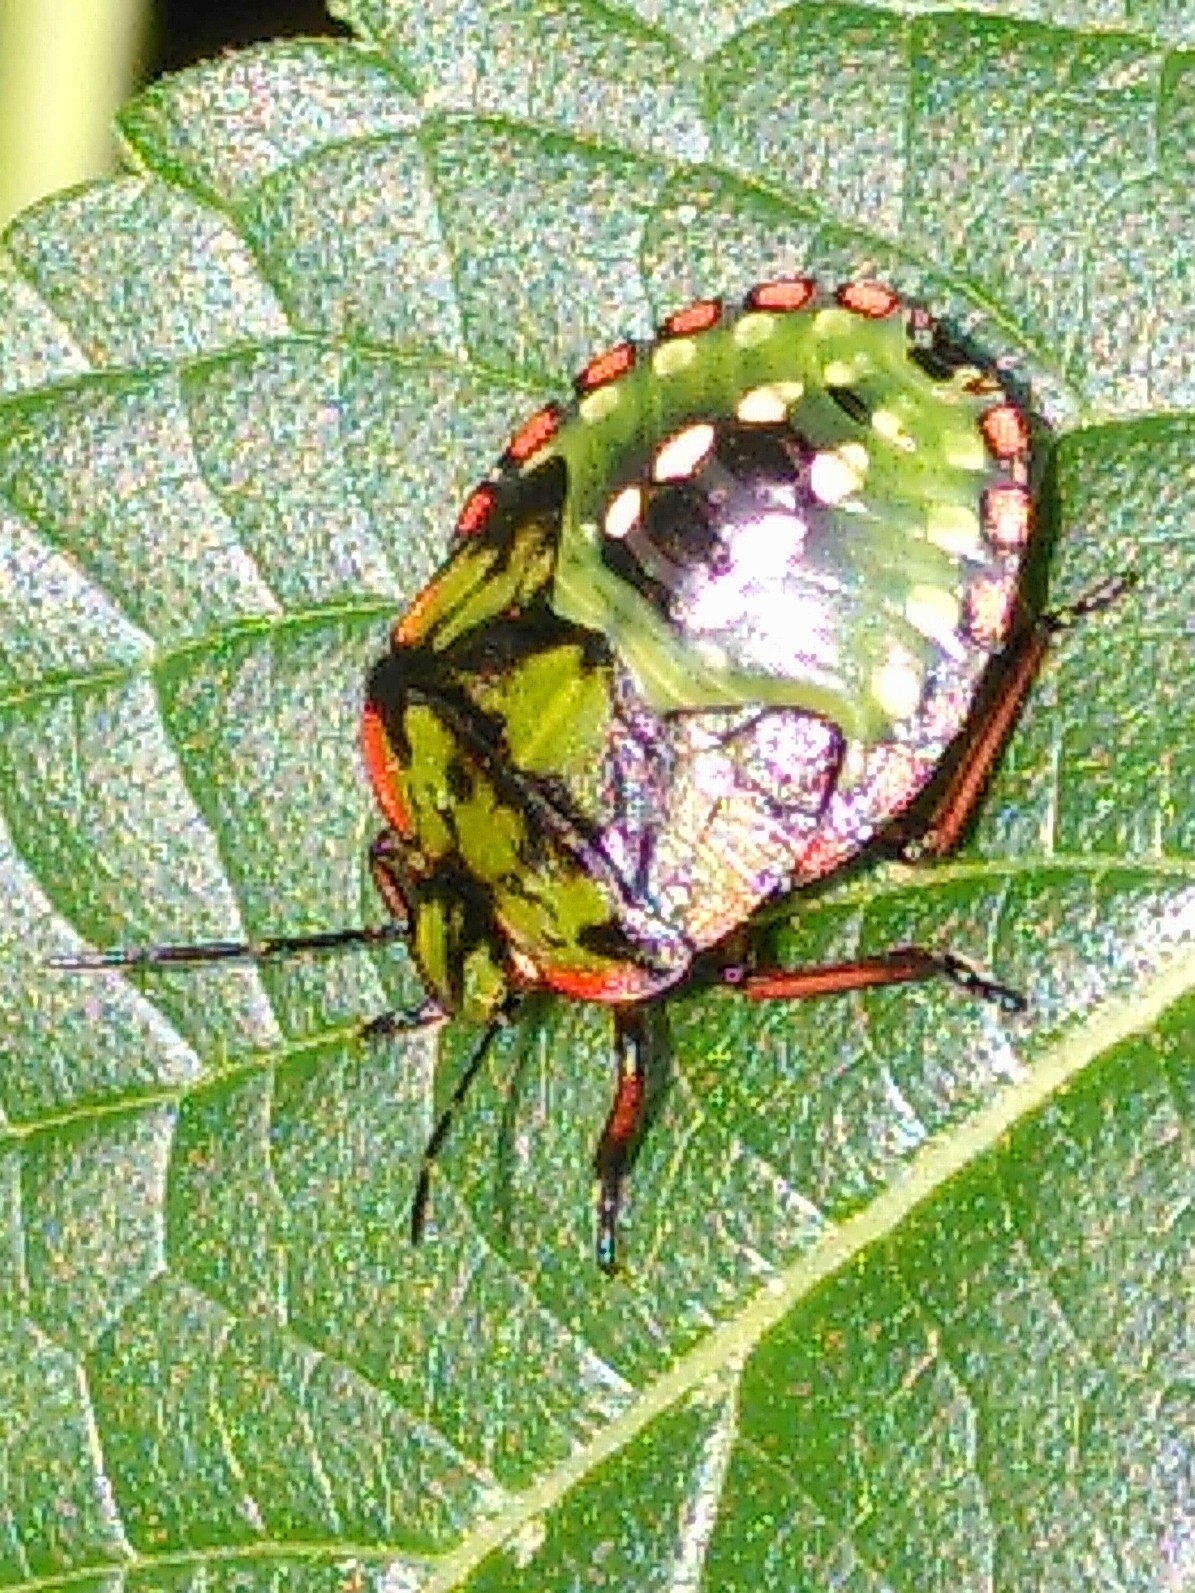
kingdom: Animalia
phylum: Arthropoda
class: Insecta
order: Hemiptera
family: Pentatomidae
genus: Nezara
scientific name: Nezara viridula
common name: Southern green stink bug
